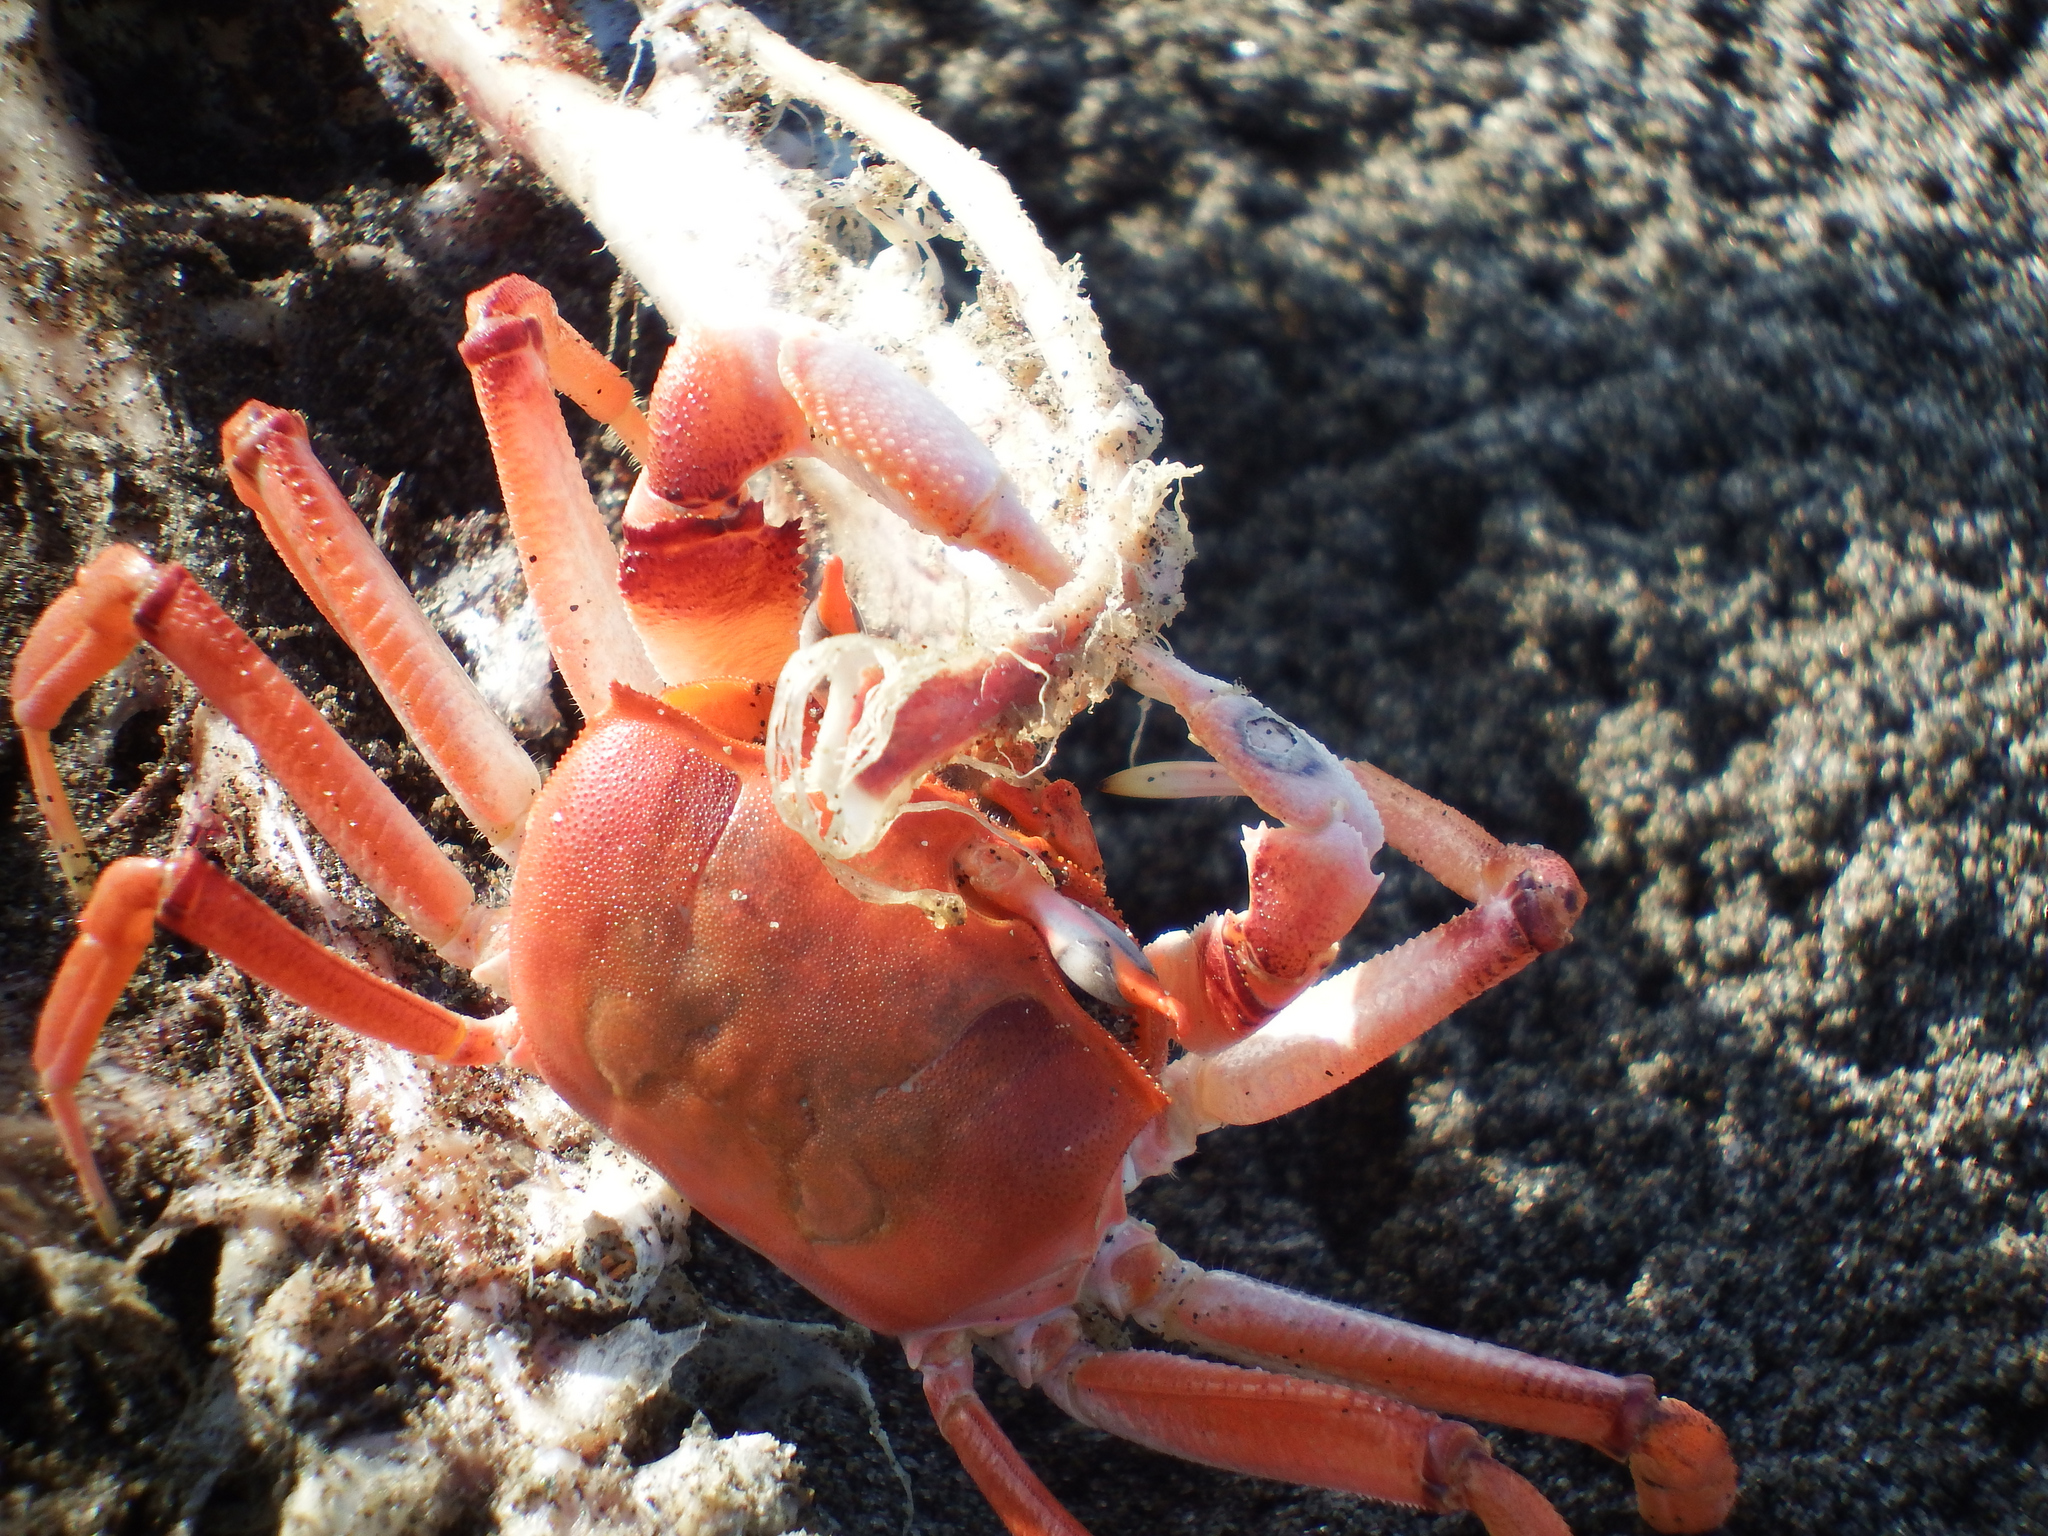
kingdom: Animalia
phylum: Arthropoda
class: Malacostraca
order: Decapoda
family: Ocypodidae
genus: Ocypode
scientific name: Ocypode gaudichaudii
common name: Pacific ghost crab
